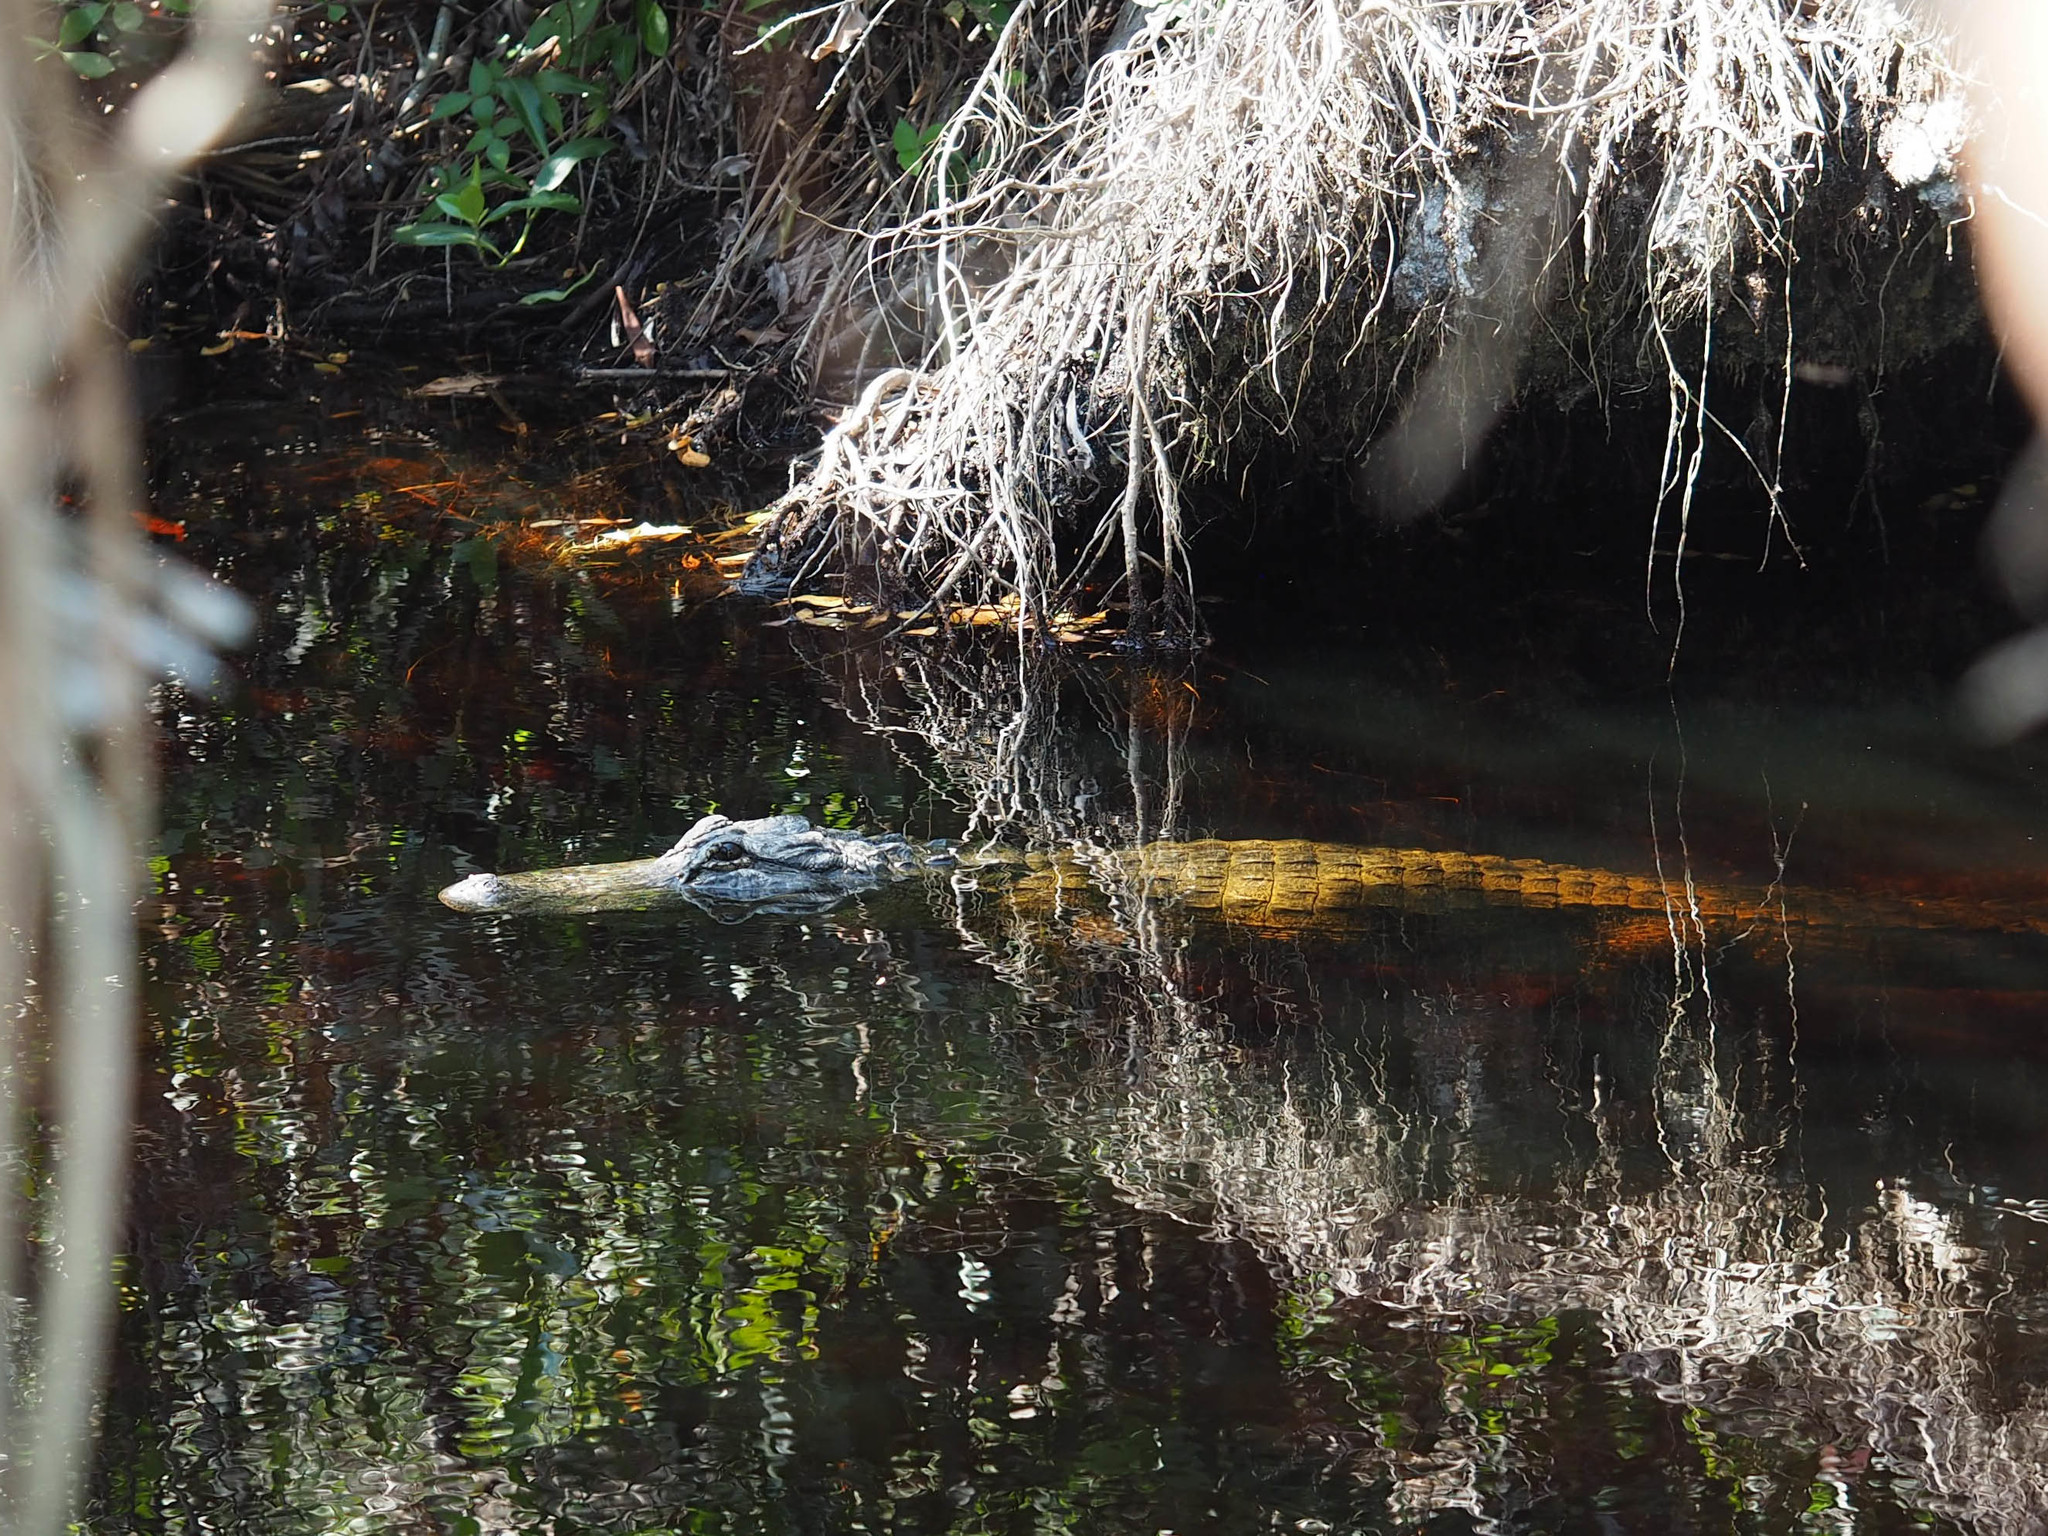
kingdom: Animalia
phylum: Chordata
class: Crocodylia
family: Alligatoridae
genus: Alligator
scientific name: Alligator mississippiensis
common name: American alligator
